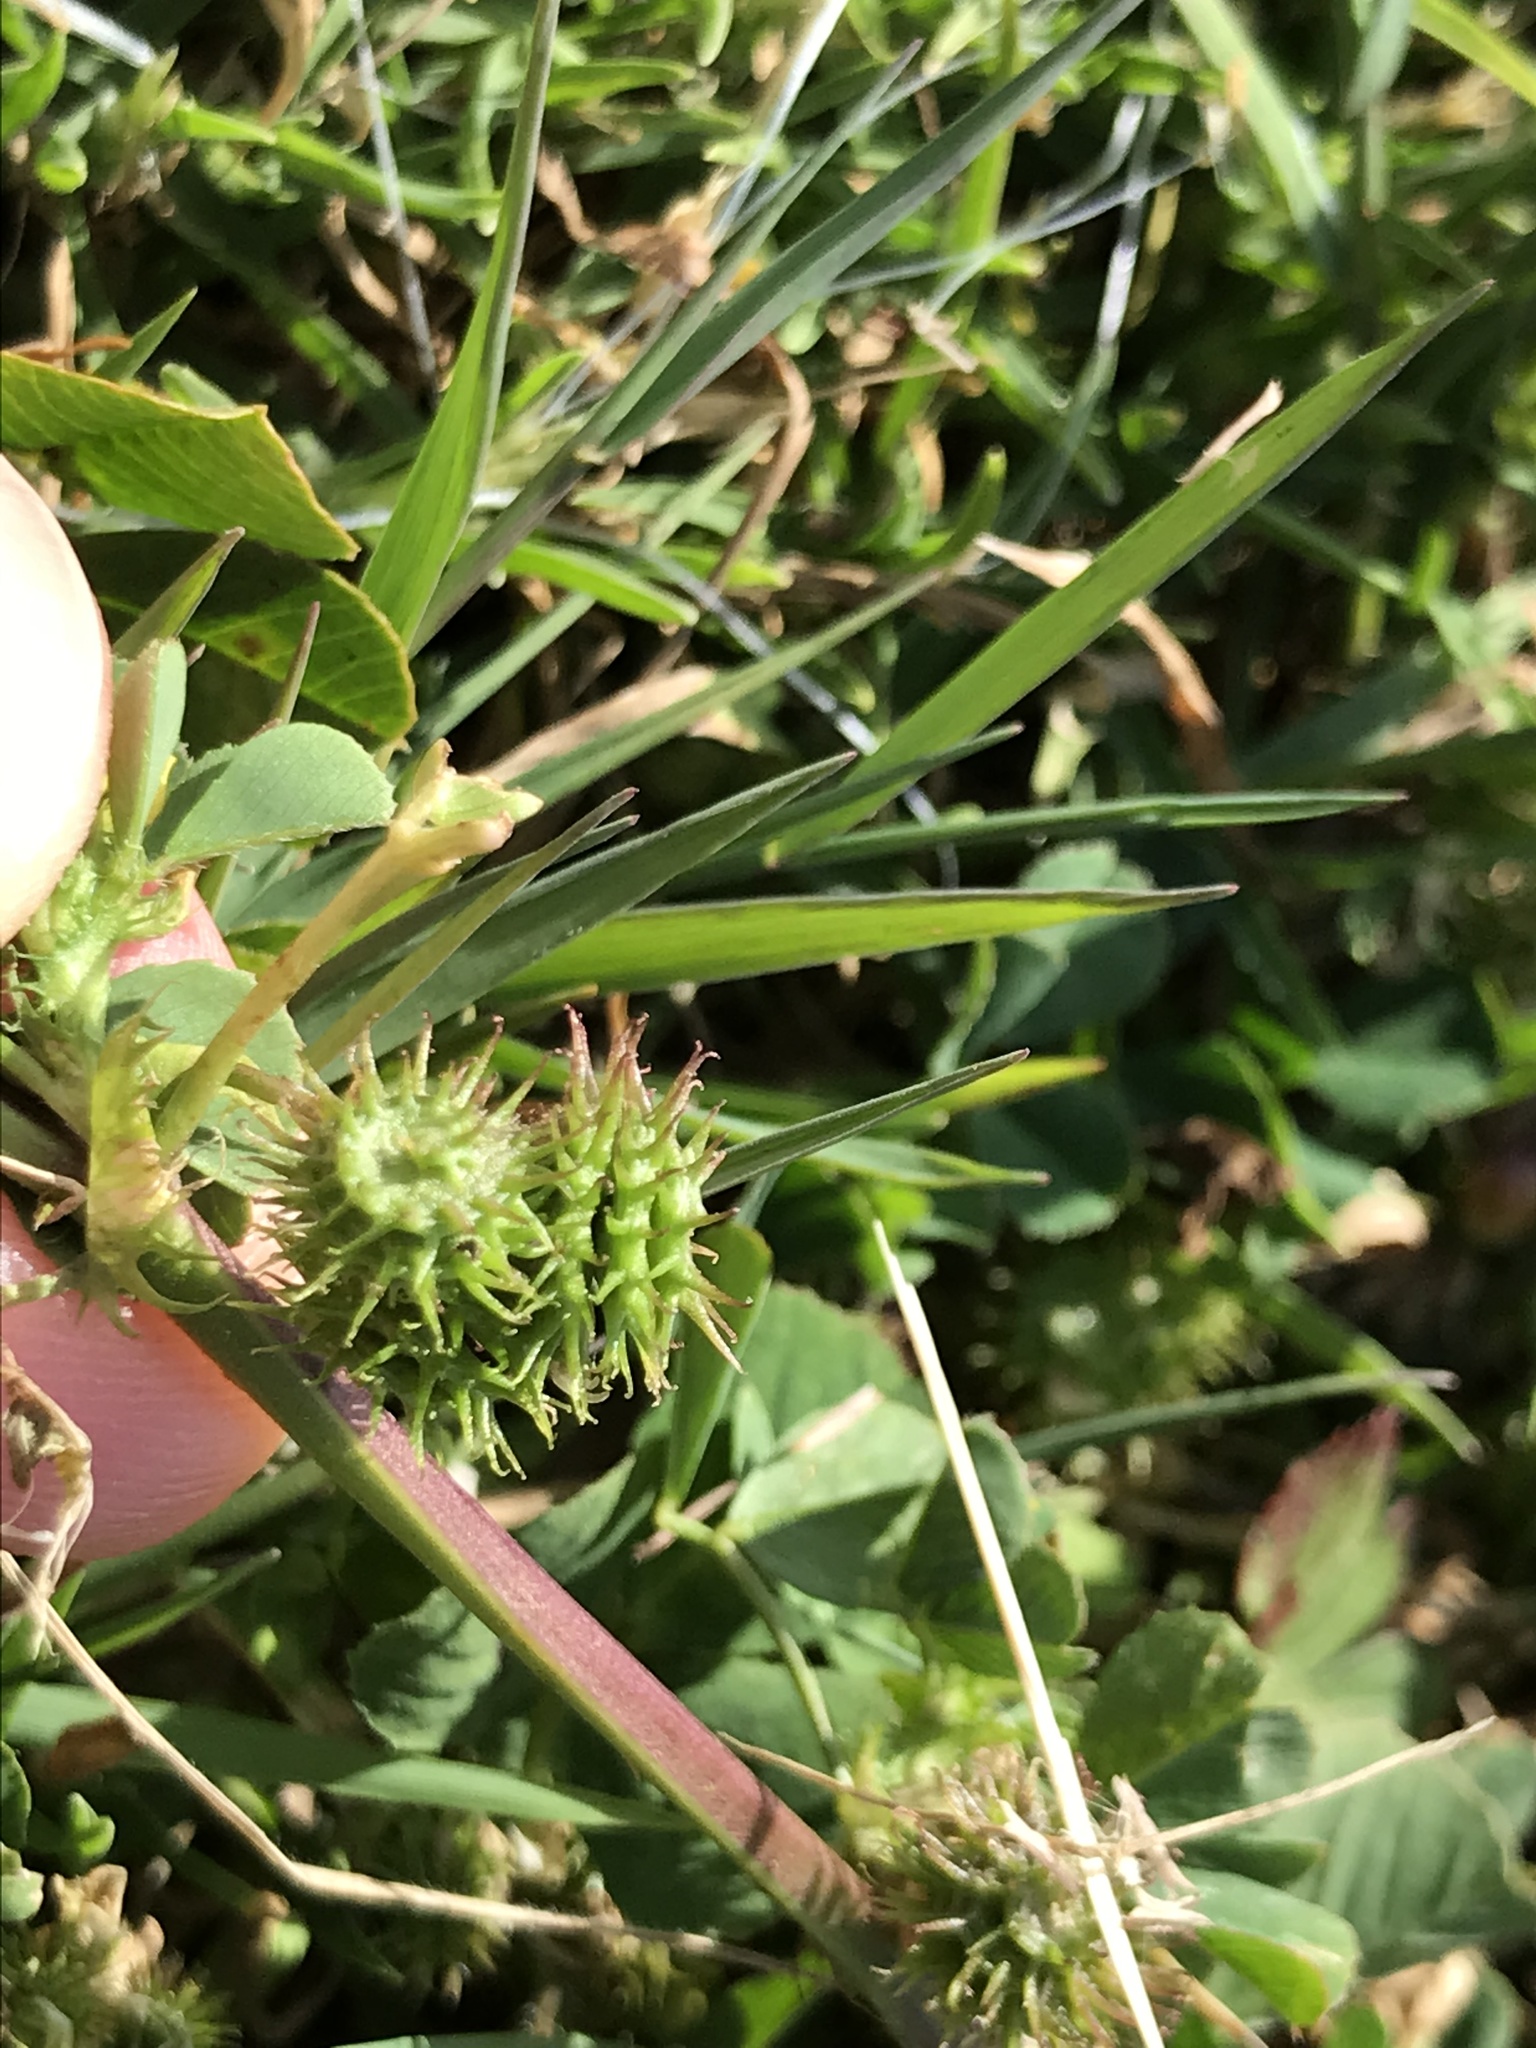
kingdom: Plantae
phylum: Tracheophyta
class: Magnoliopsida
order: Fabales
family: Fabaceae
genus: Medicago
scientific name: Medicago polymorpha
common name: Burclover
